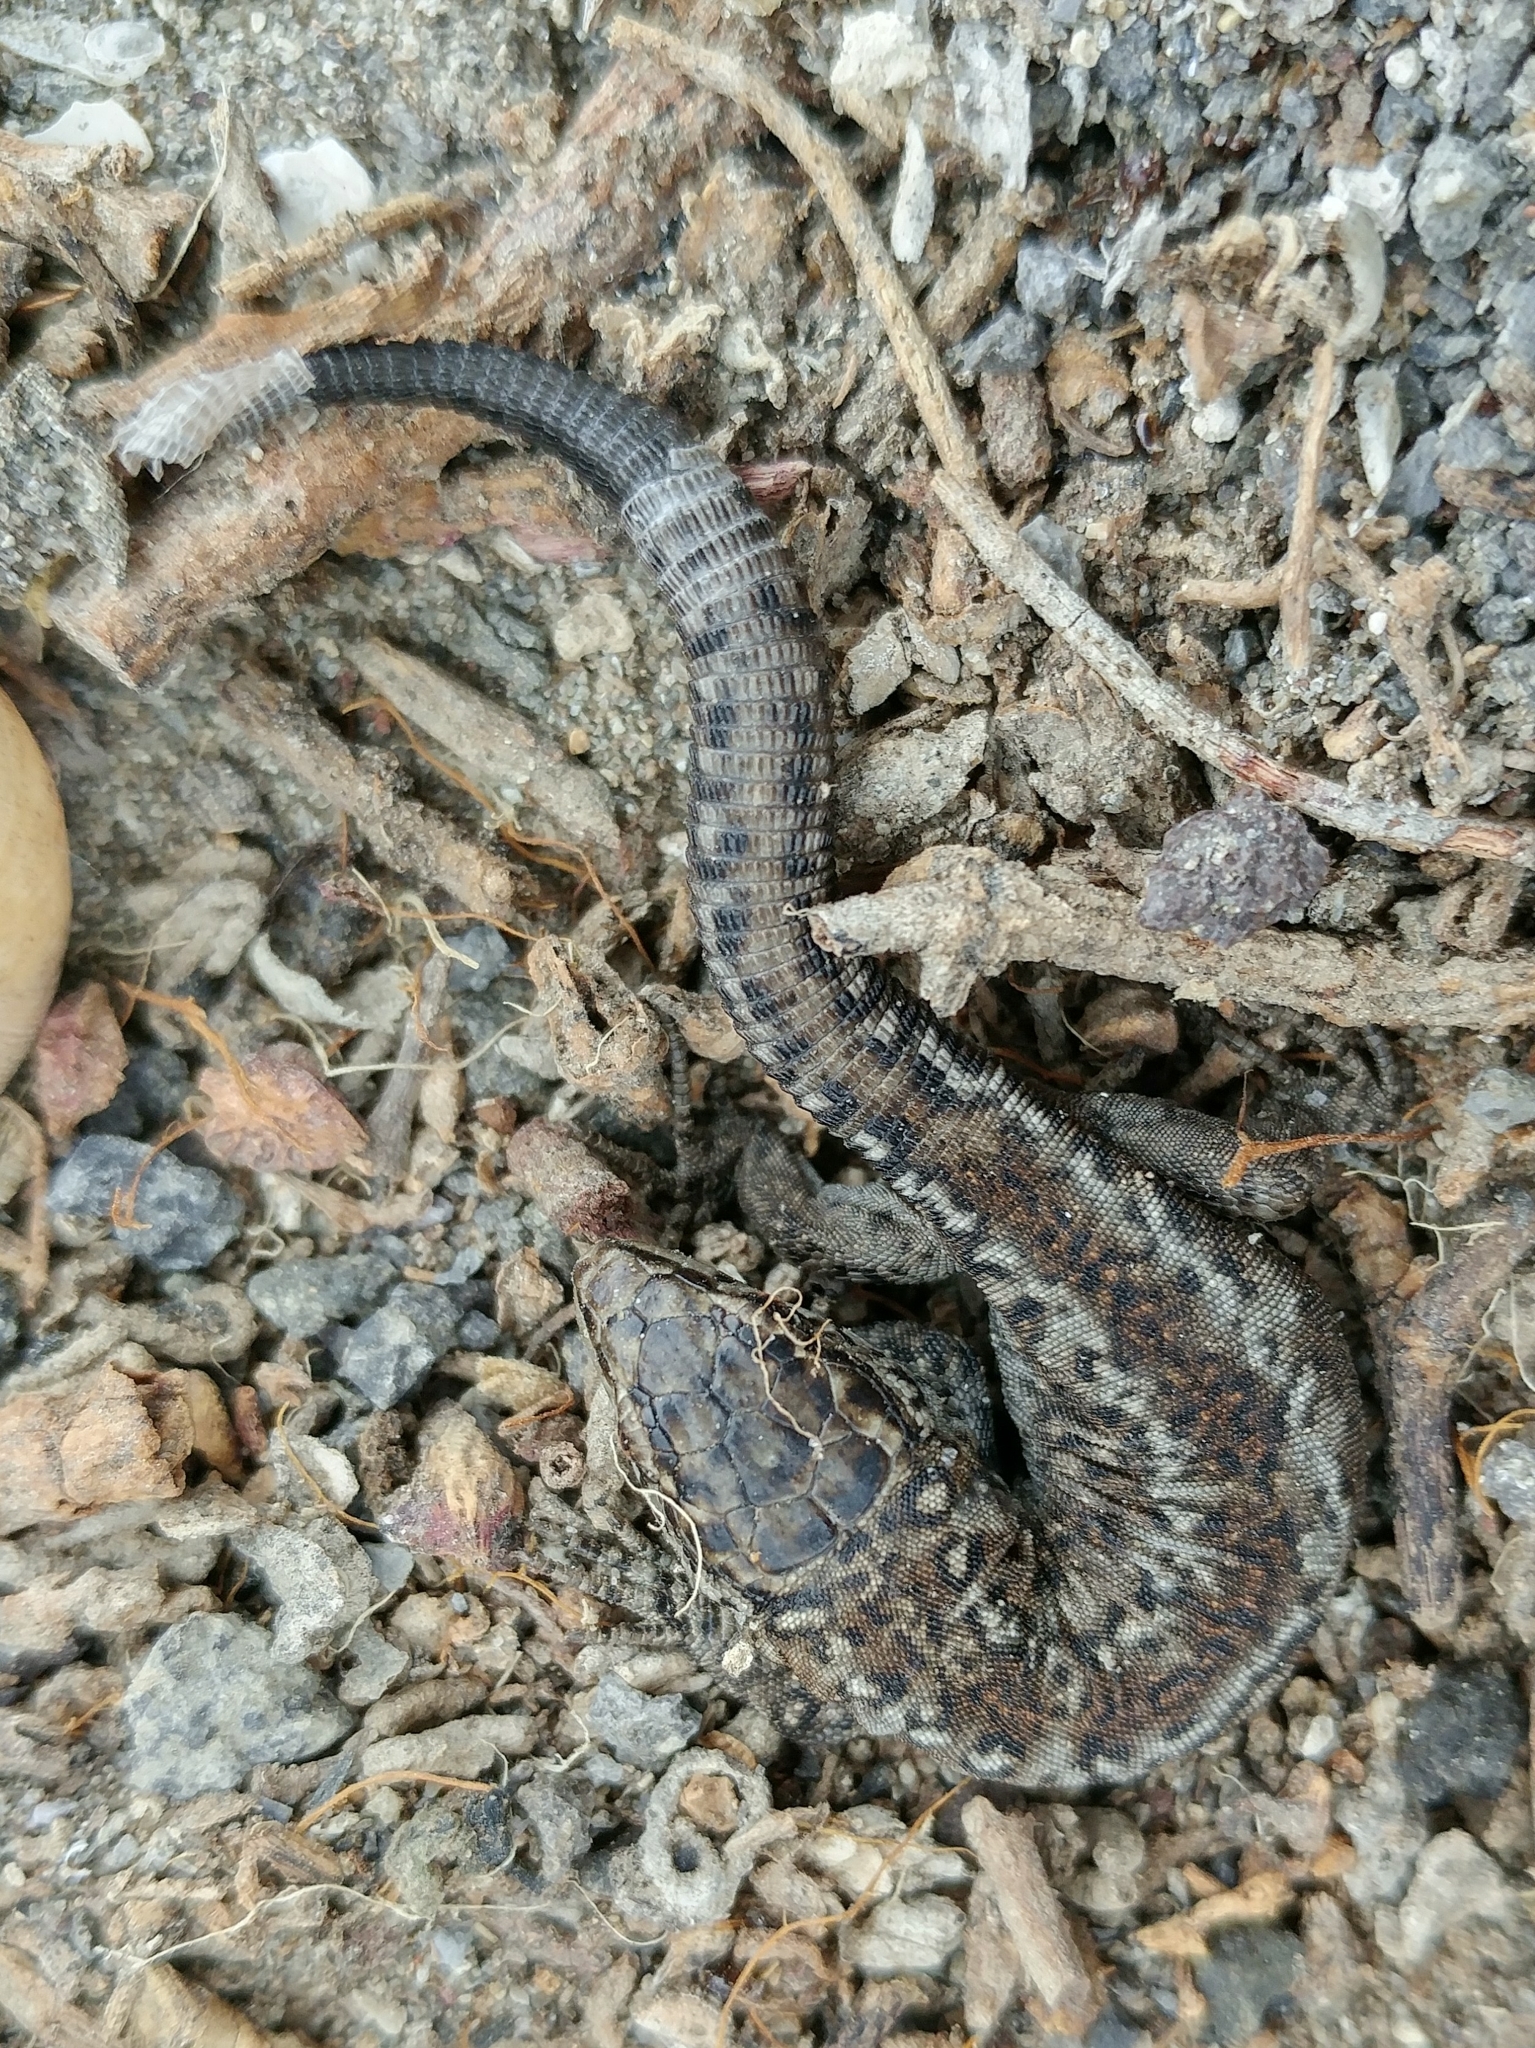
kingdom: Animalia
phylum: Chordata
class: Squamata
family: Xantusiidae
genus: Xantusia
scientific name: Xantusia riversiana
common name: Island night lizard
